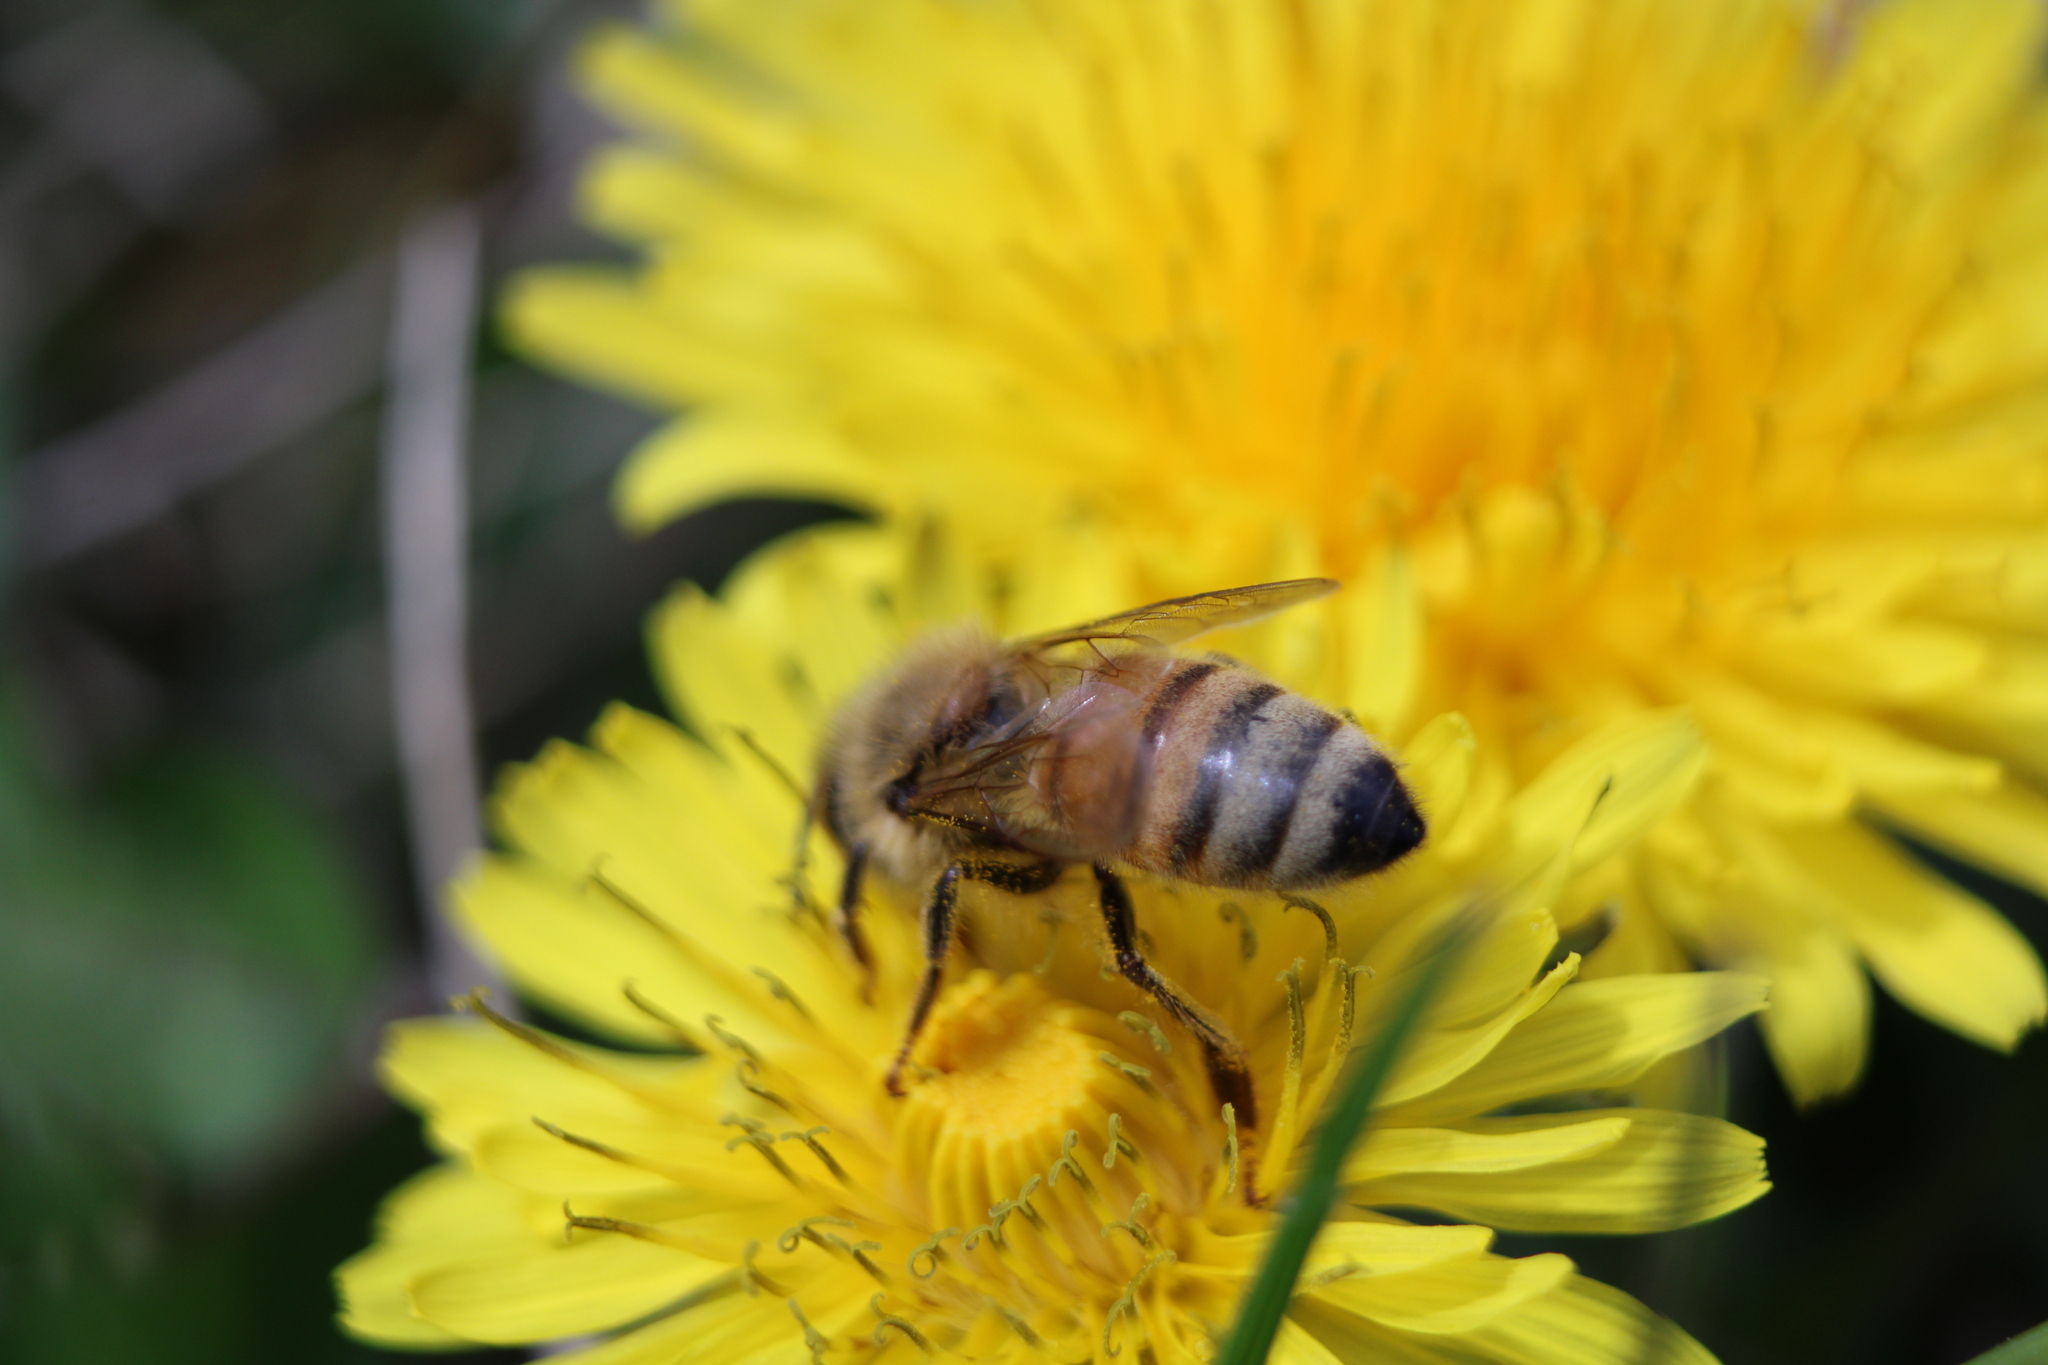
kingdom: Animalia
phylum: Arthropoda
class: Insecta
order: Hymenoptera
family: Apidae
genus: Apis
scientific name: Apis mellifera
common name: Honey bee
